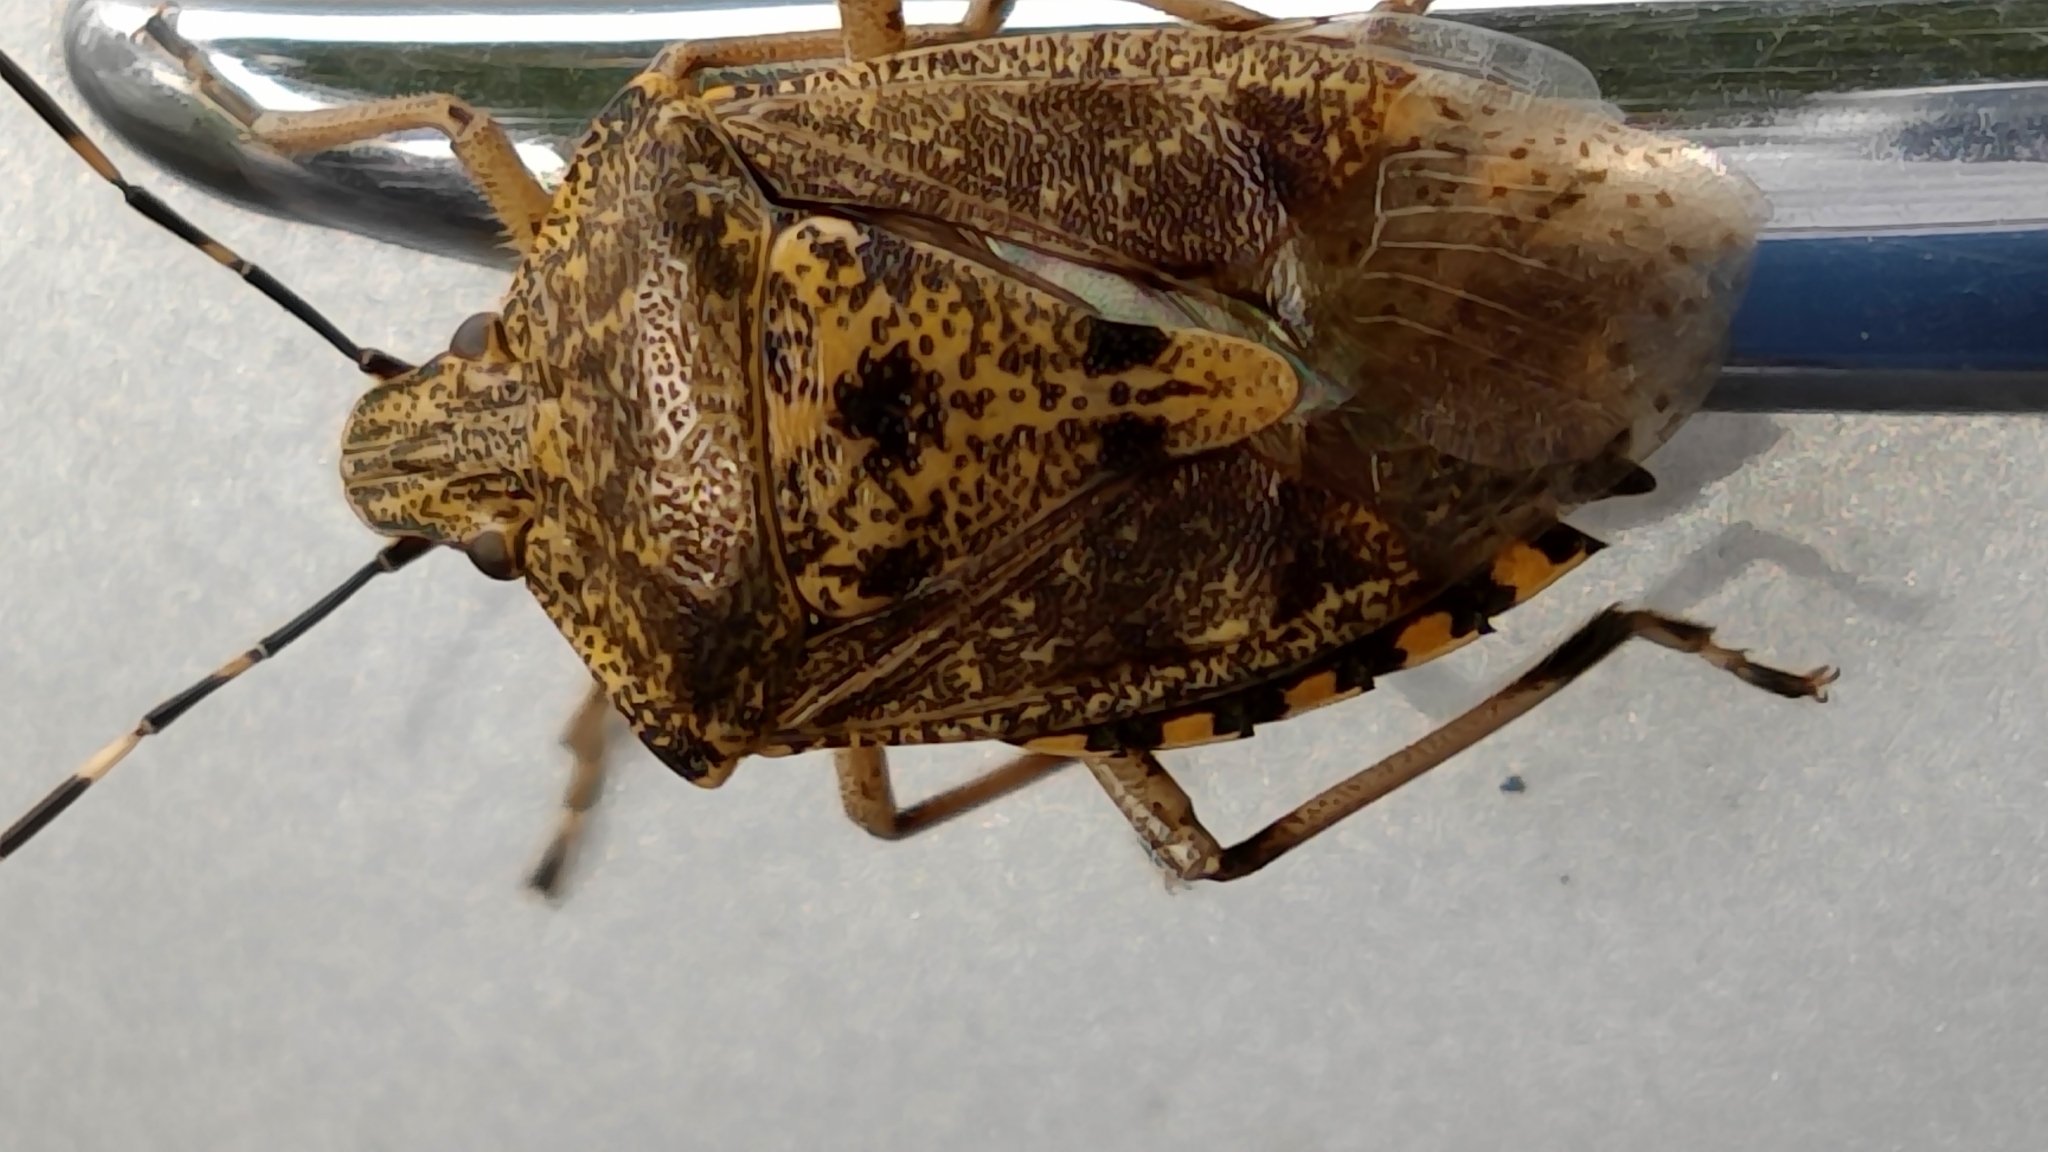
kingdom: Animalia
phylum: Arthropoda
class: Insecta
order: Hemiptera
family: Pentatomidae
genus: Rhaphigaster
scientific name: Rhaphigaster nebulosa
